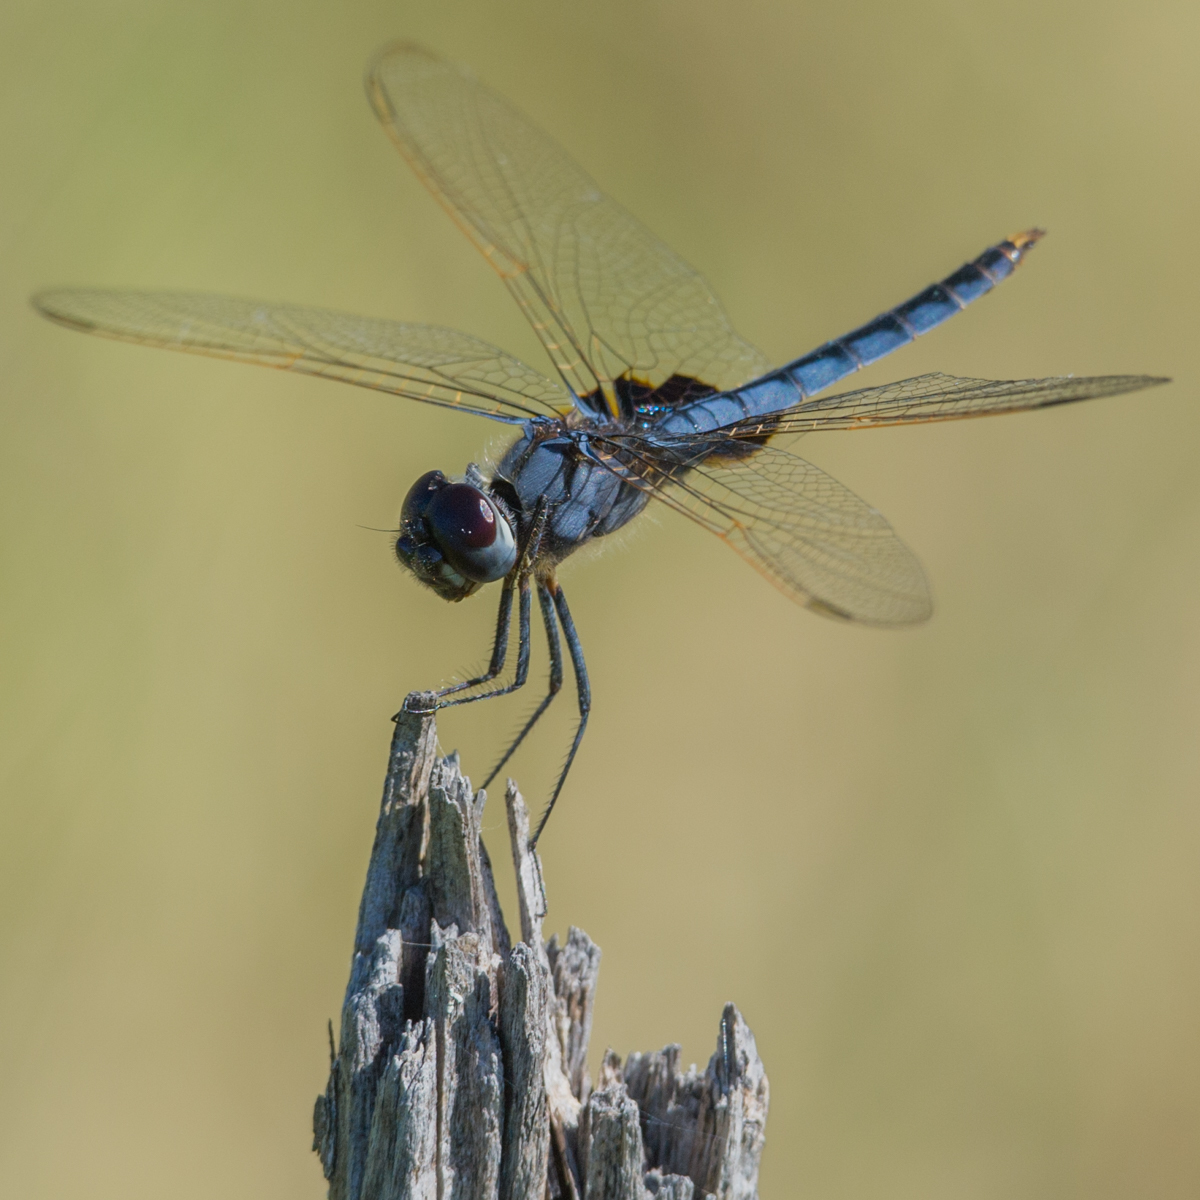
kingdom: Animalia
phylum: Arthropoda
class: Insecta
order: Odonata
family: Libellulidae
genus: Urothemis
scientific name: Urothemis edwardsii
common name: Blue basker
